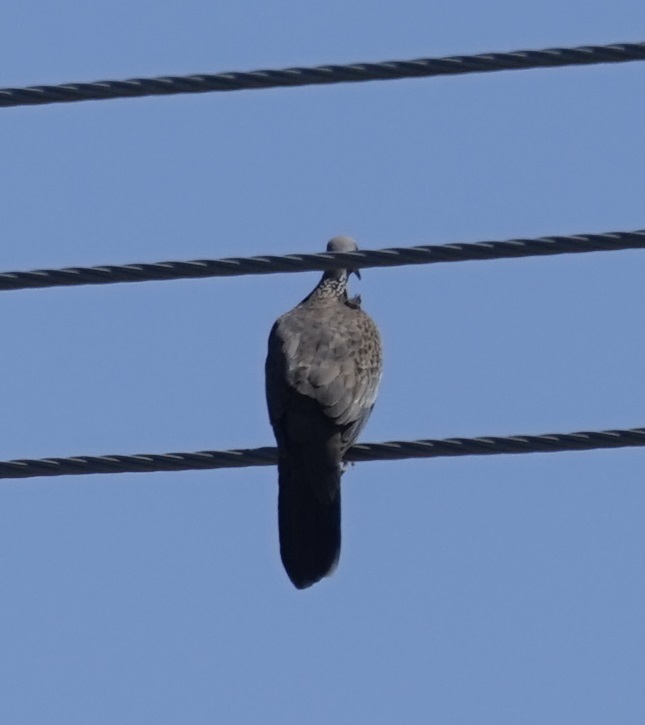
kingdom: Animalia
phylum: Chordata
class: Aves
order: Columbiformes
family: Columbidae
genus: Spilopelia
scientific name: Spilopelia chinensis
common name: Spotted dove
